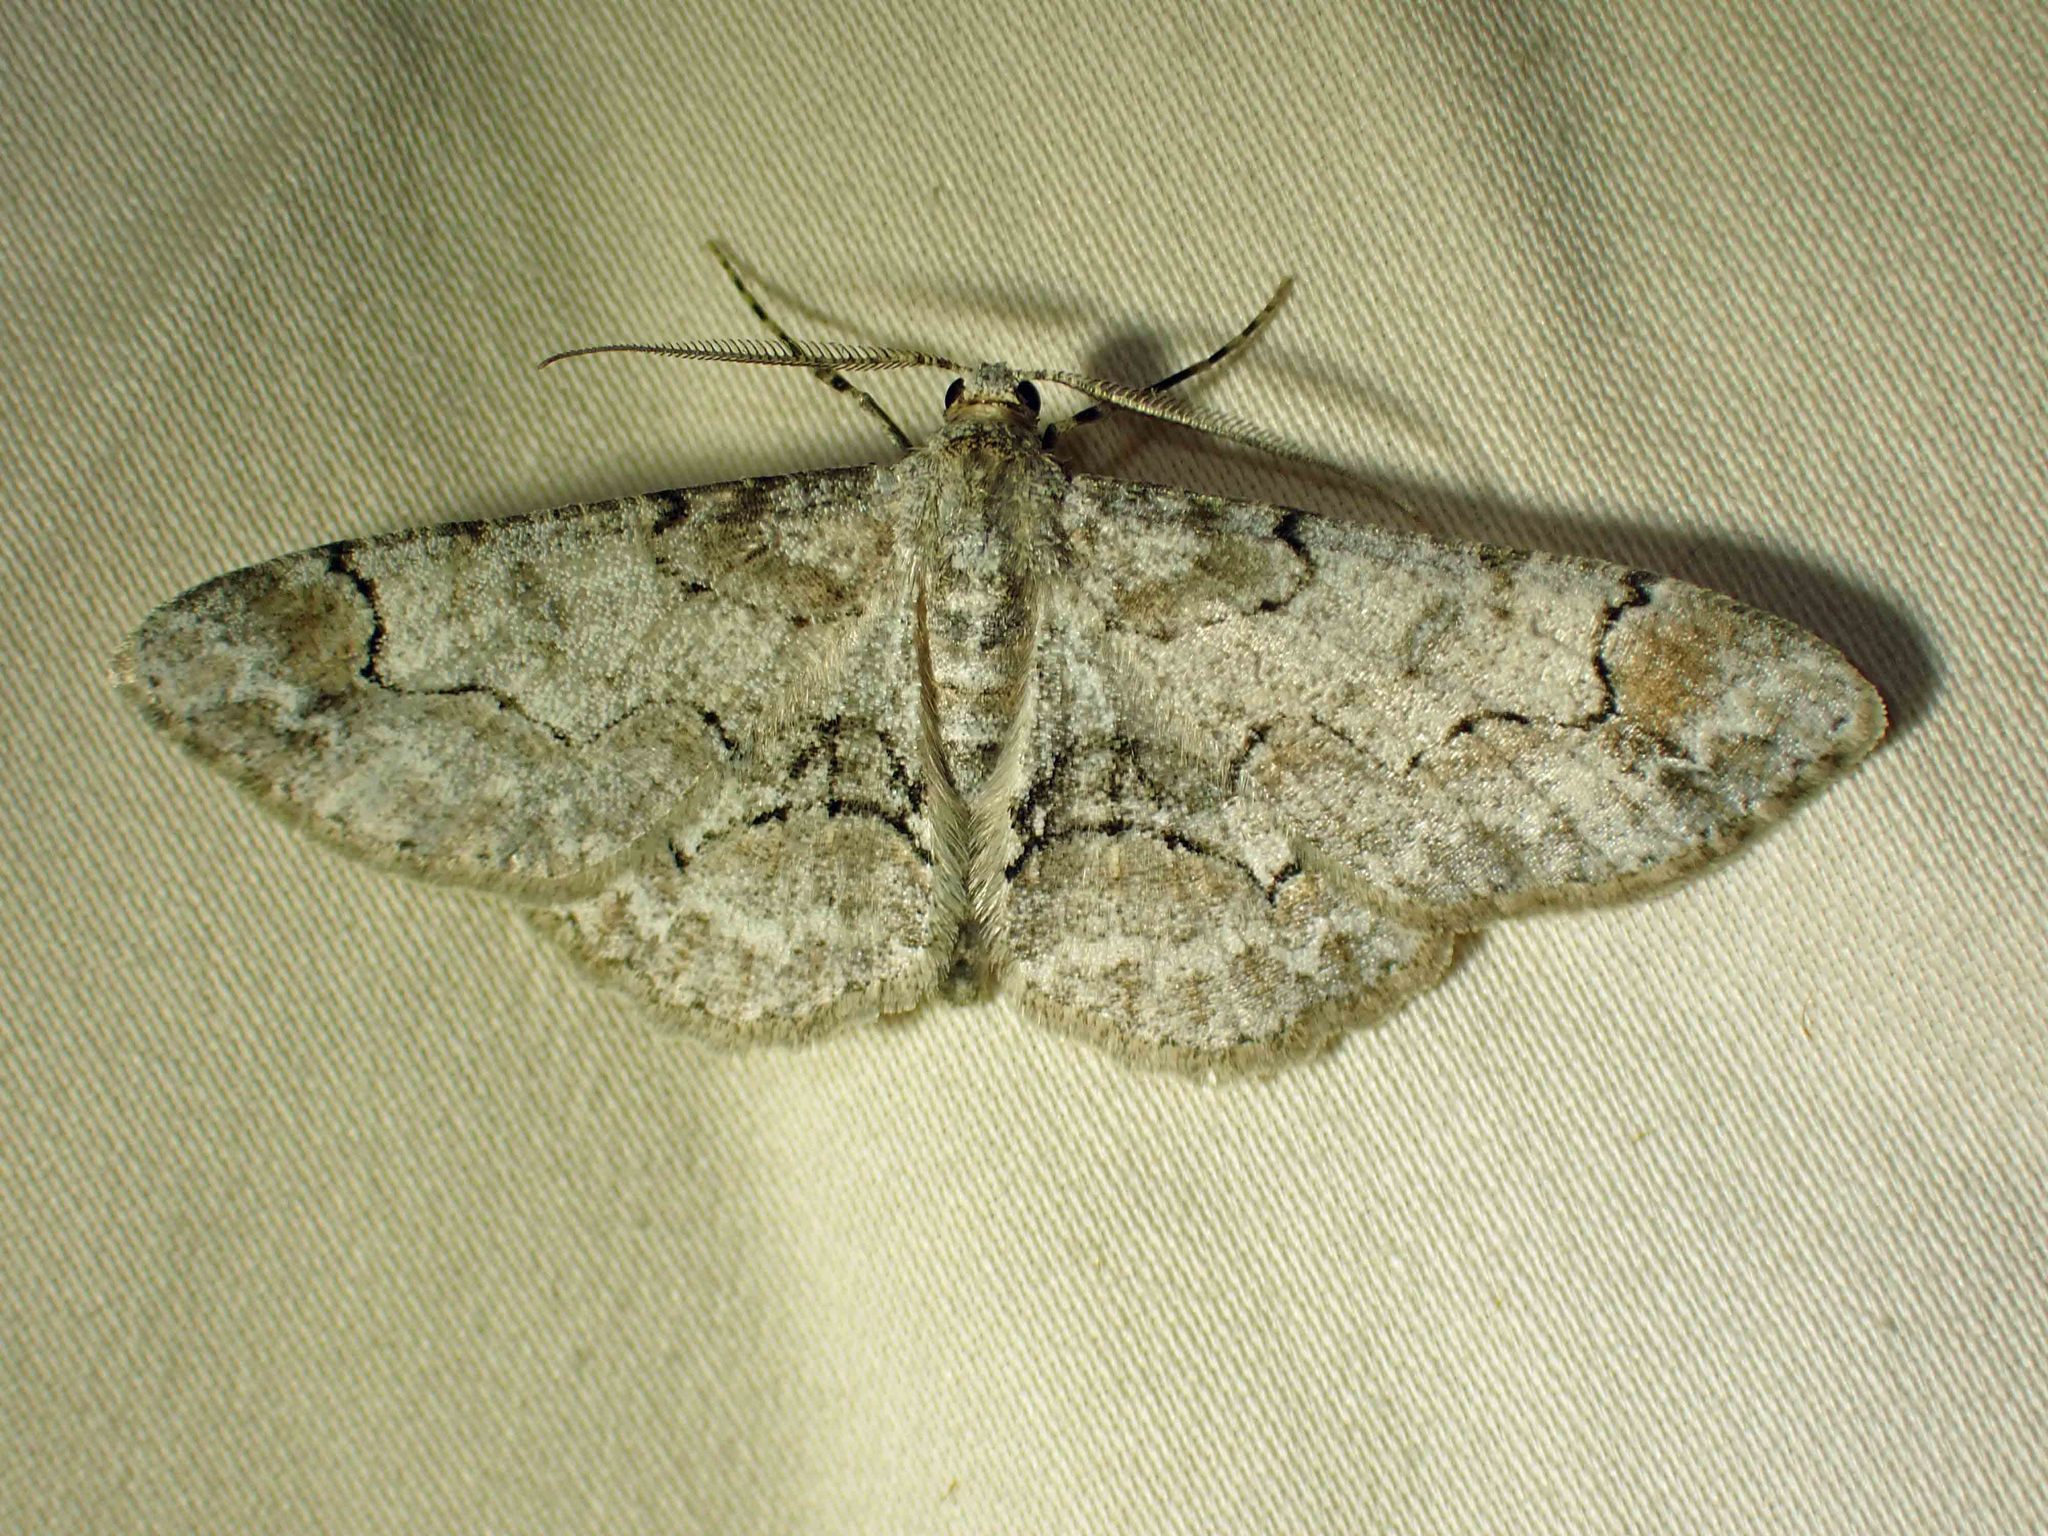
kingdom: Animalia
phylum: Arthropoda
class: Insecta
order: Lepidoptera
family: Geometridae
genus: Iridopsis
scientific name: Iridopsis larvaria
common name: Bent-line gray
